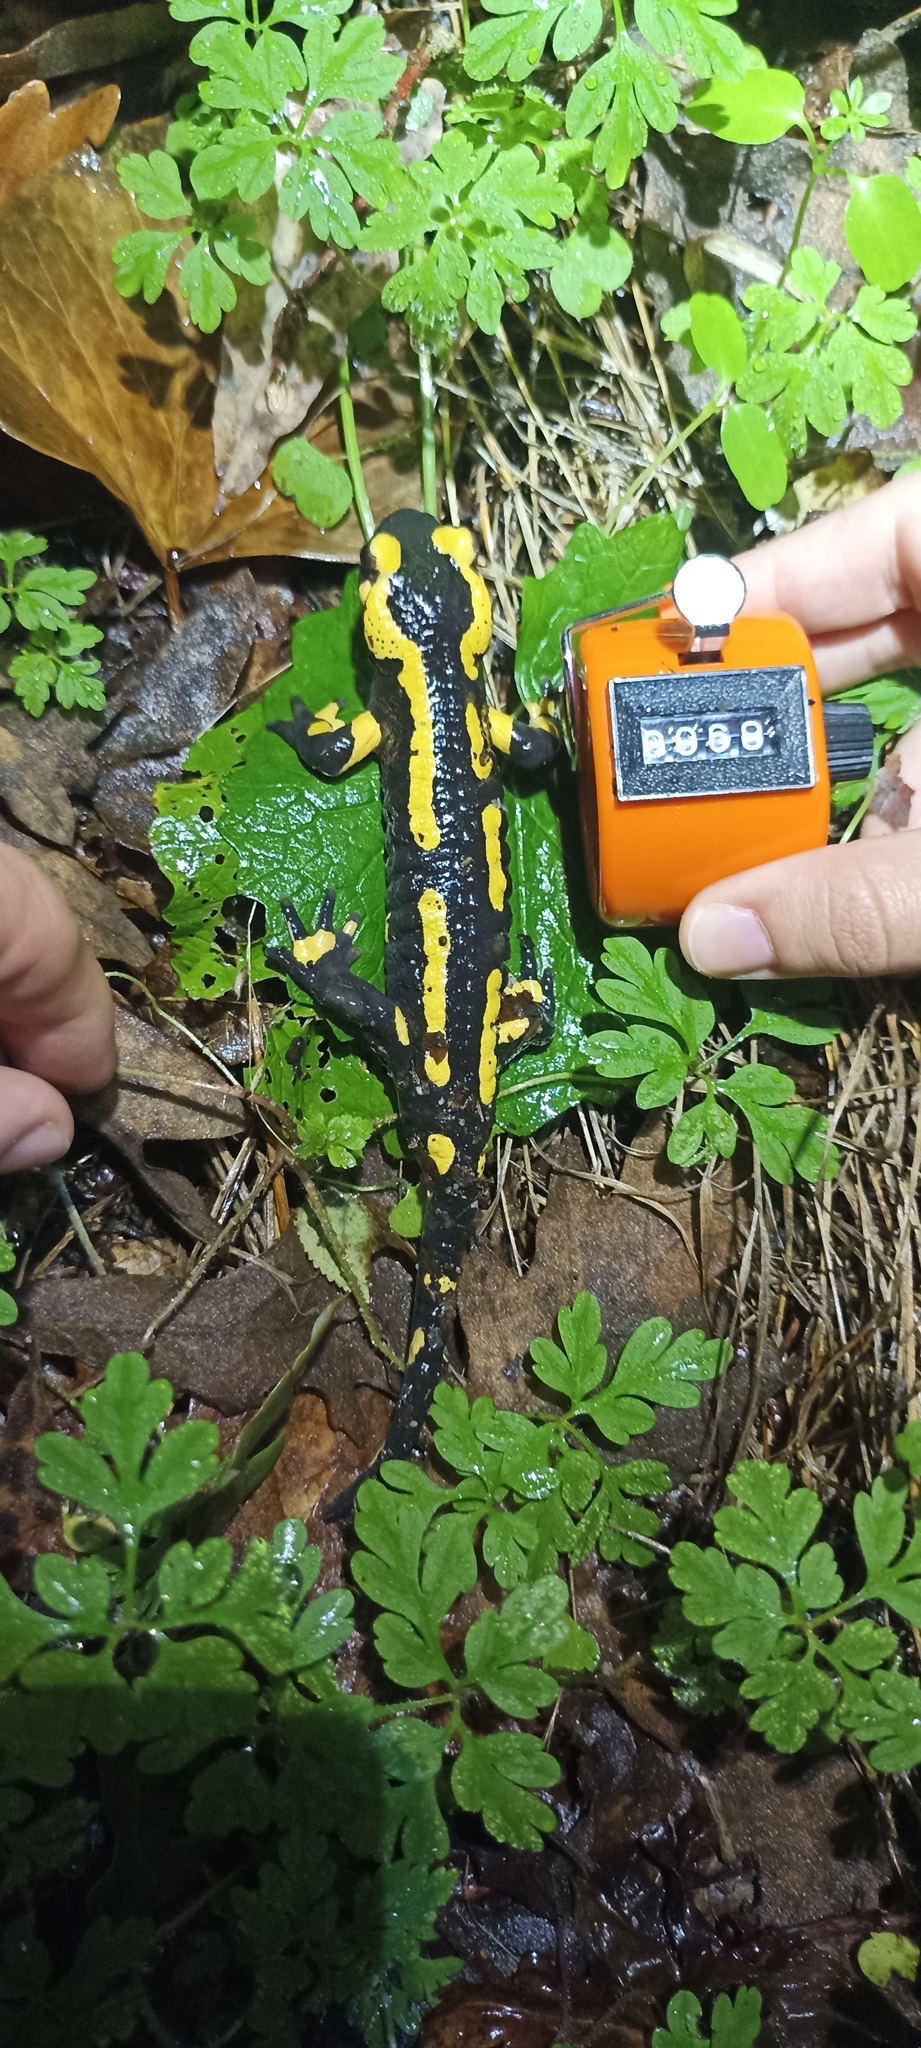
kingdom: Animalia
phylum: Chordata
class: Amphibia
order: Caudata
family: Salamandridae
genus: Salamandra
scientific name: Salamandra salamandra
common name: Fire salamander
